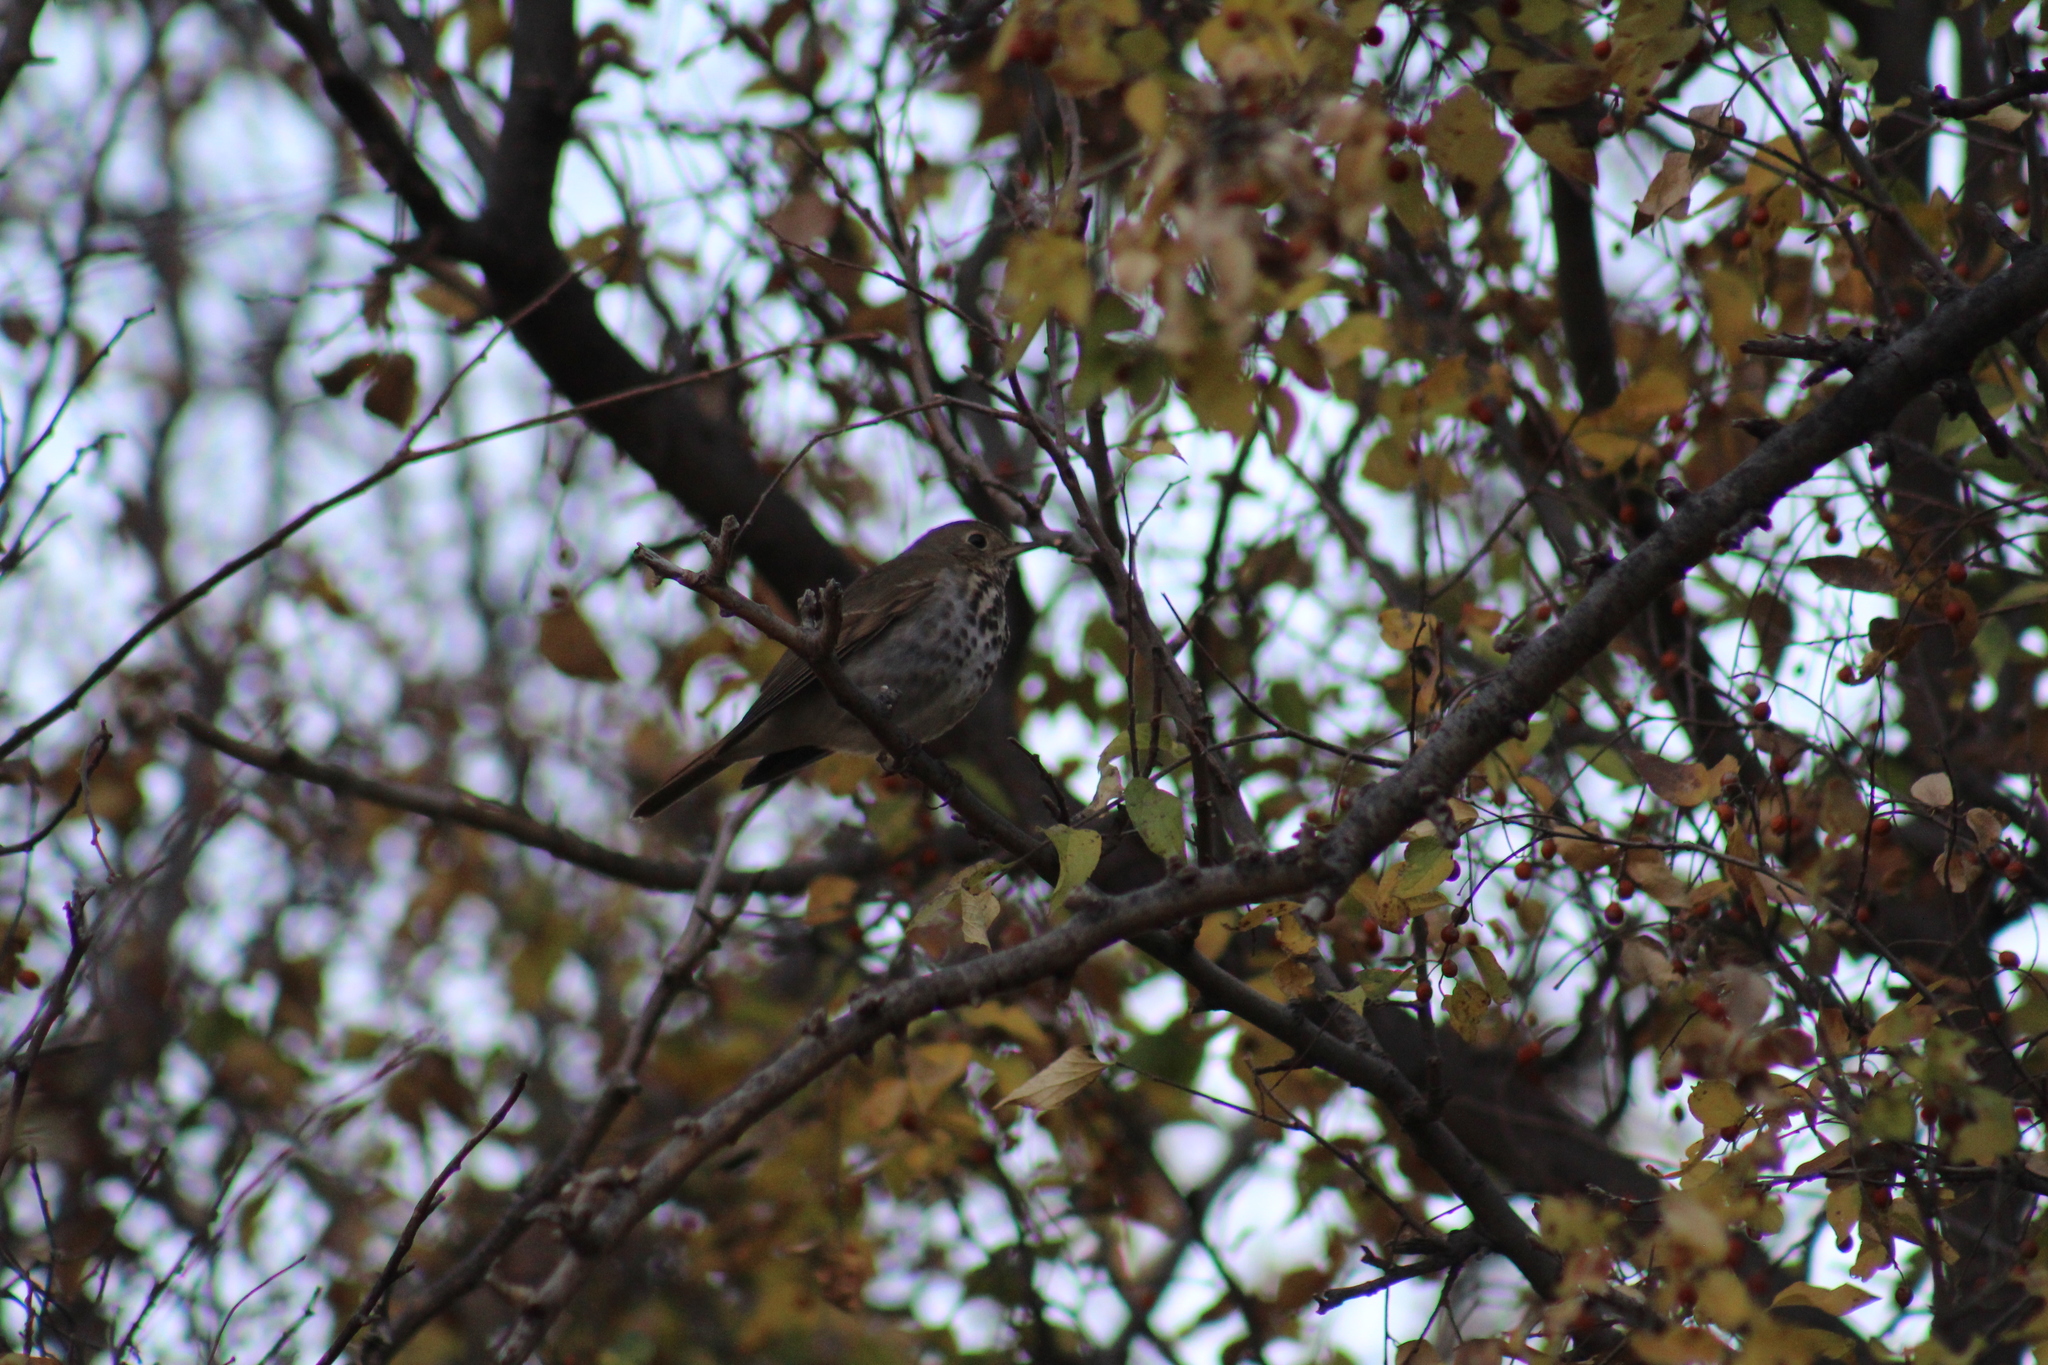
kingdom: Animalia
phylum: Chordata
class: Aves
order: Passeriformes
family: Turdidae
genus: Catharus
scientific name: Catharus guttatus
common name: Hermit thrush
